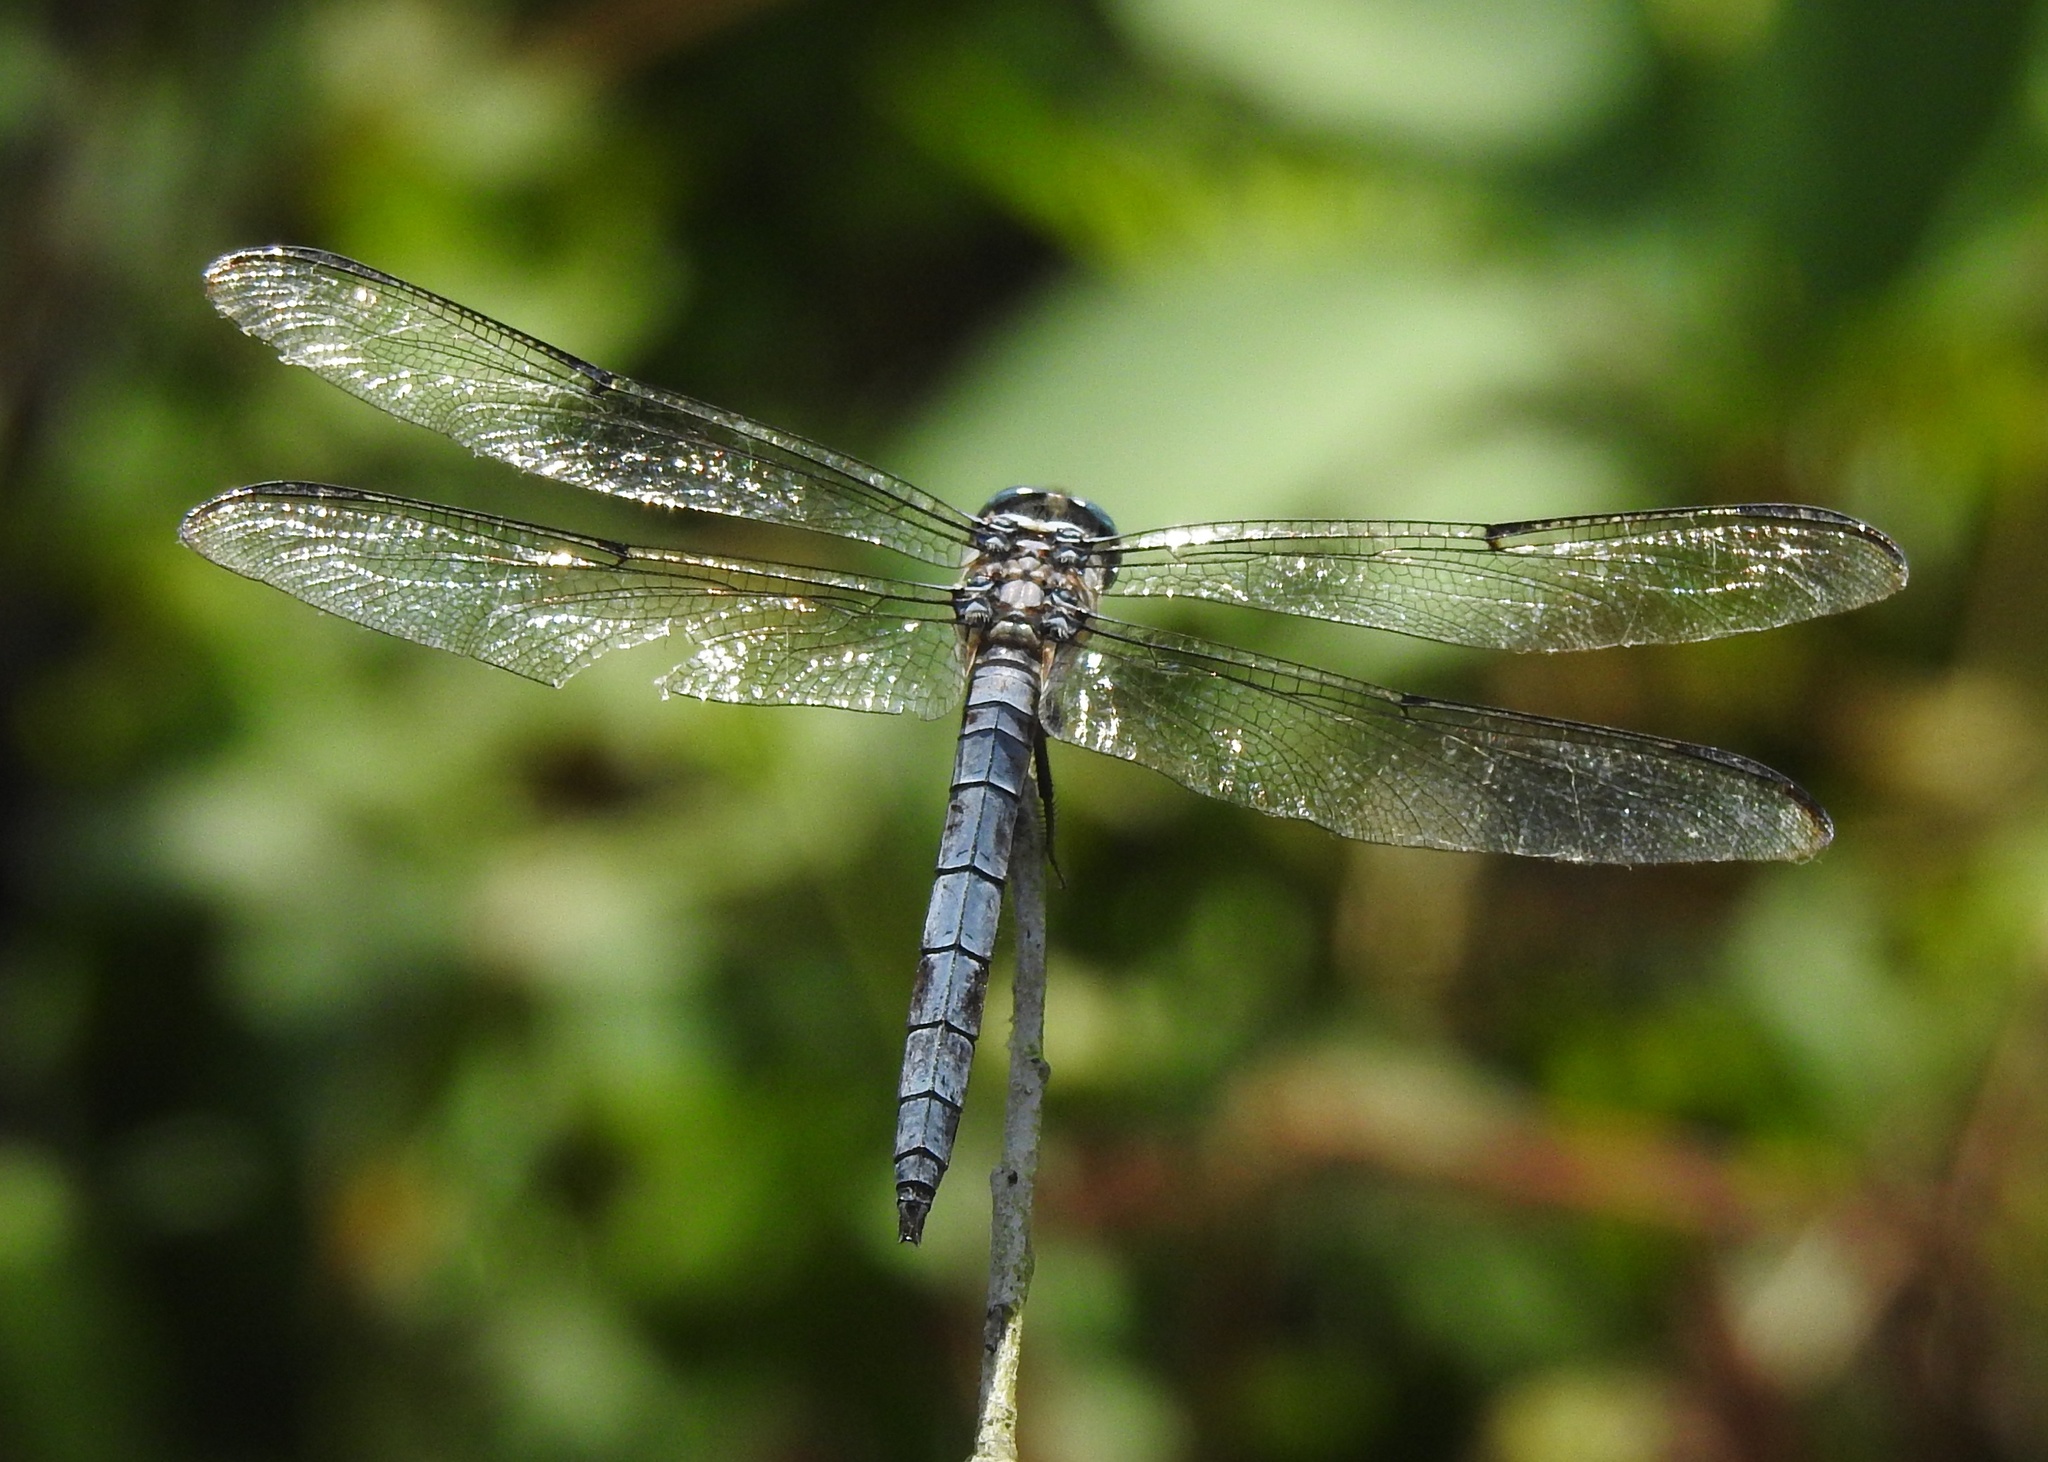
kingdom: Animalia
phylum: Arthropoda
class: Insecta
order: Odonata
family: Libellulidae
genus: Libellula
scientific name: Libellula vibrans
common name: Great blue skimmer
